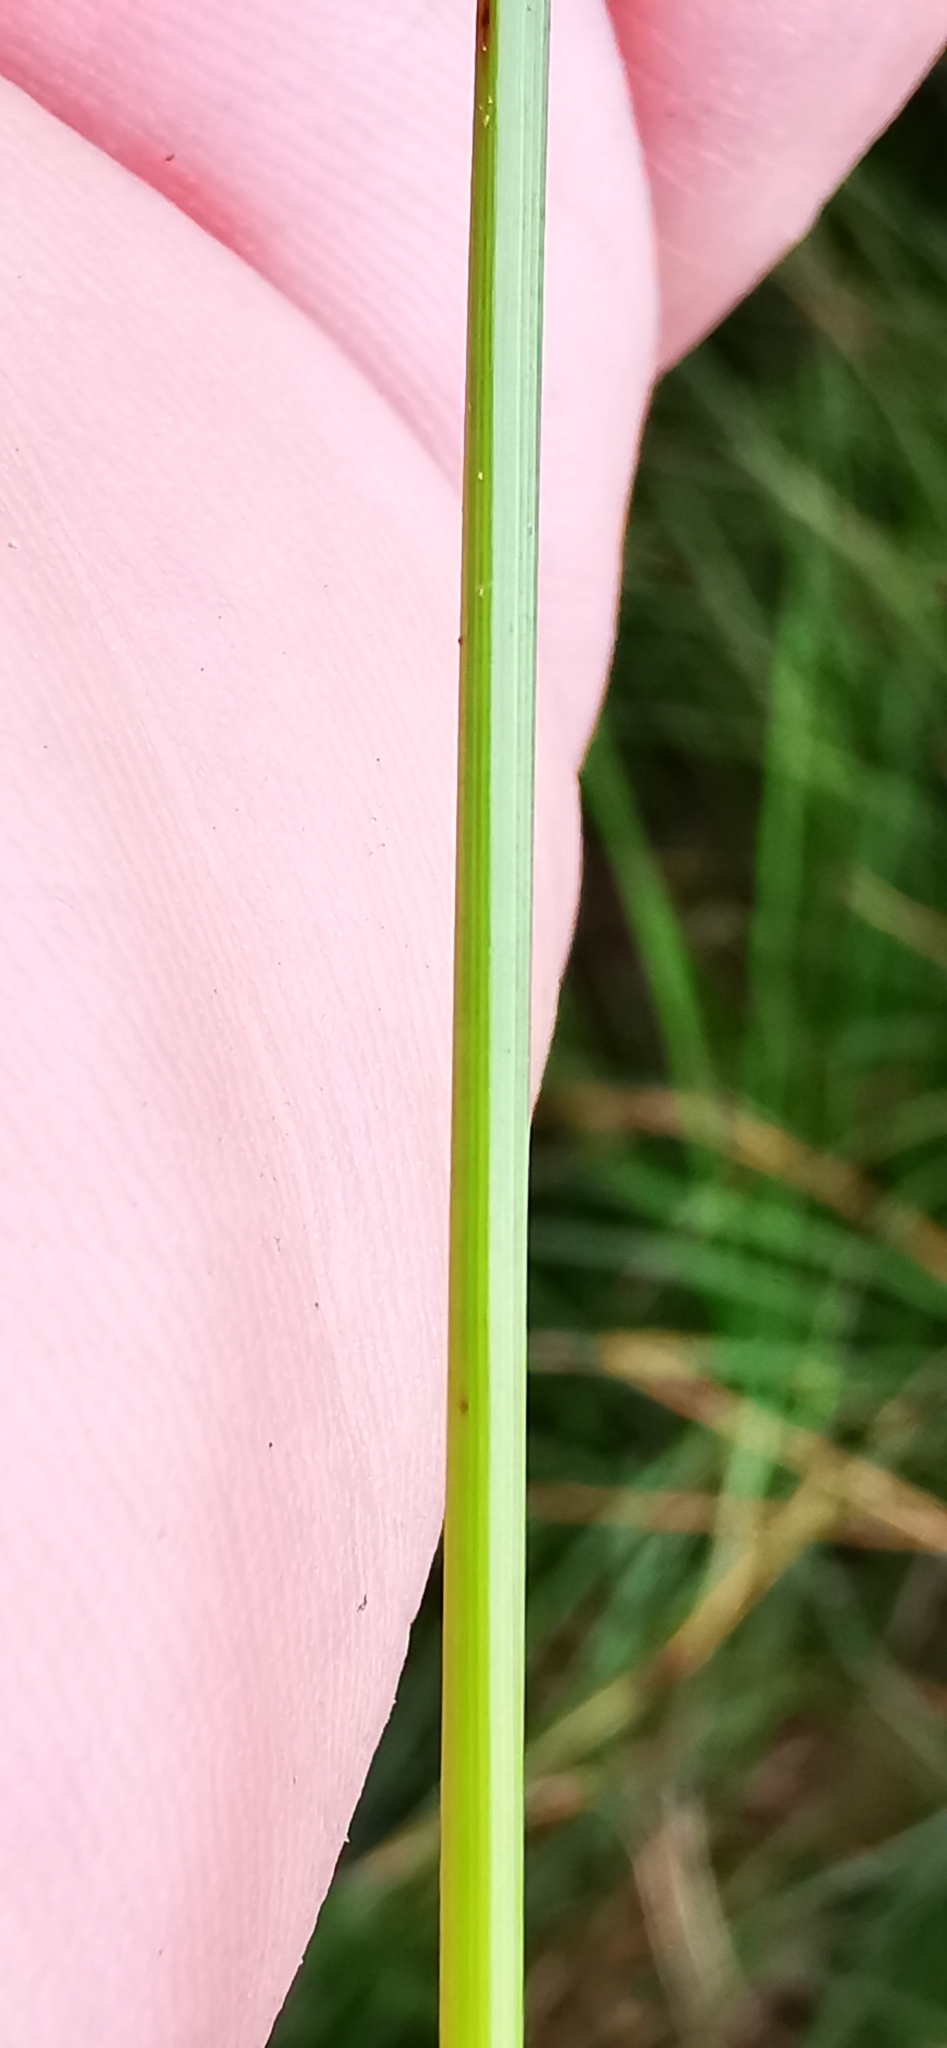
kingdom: Plantae
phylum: Tracheophyta
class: Liliopsida
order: Poales
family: Cyperaceae
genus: Carex
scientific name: Carex rostrata
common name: Bottle sedge
